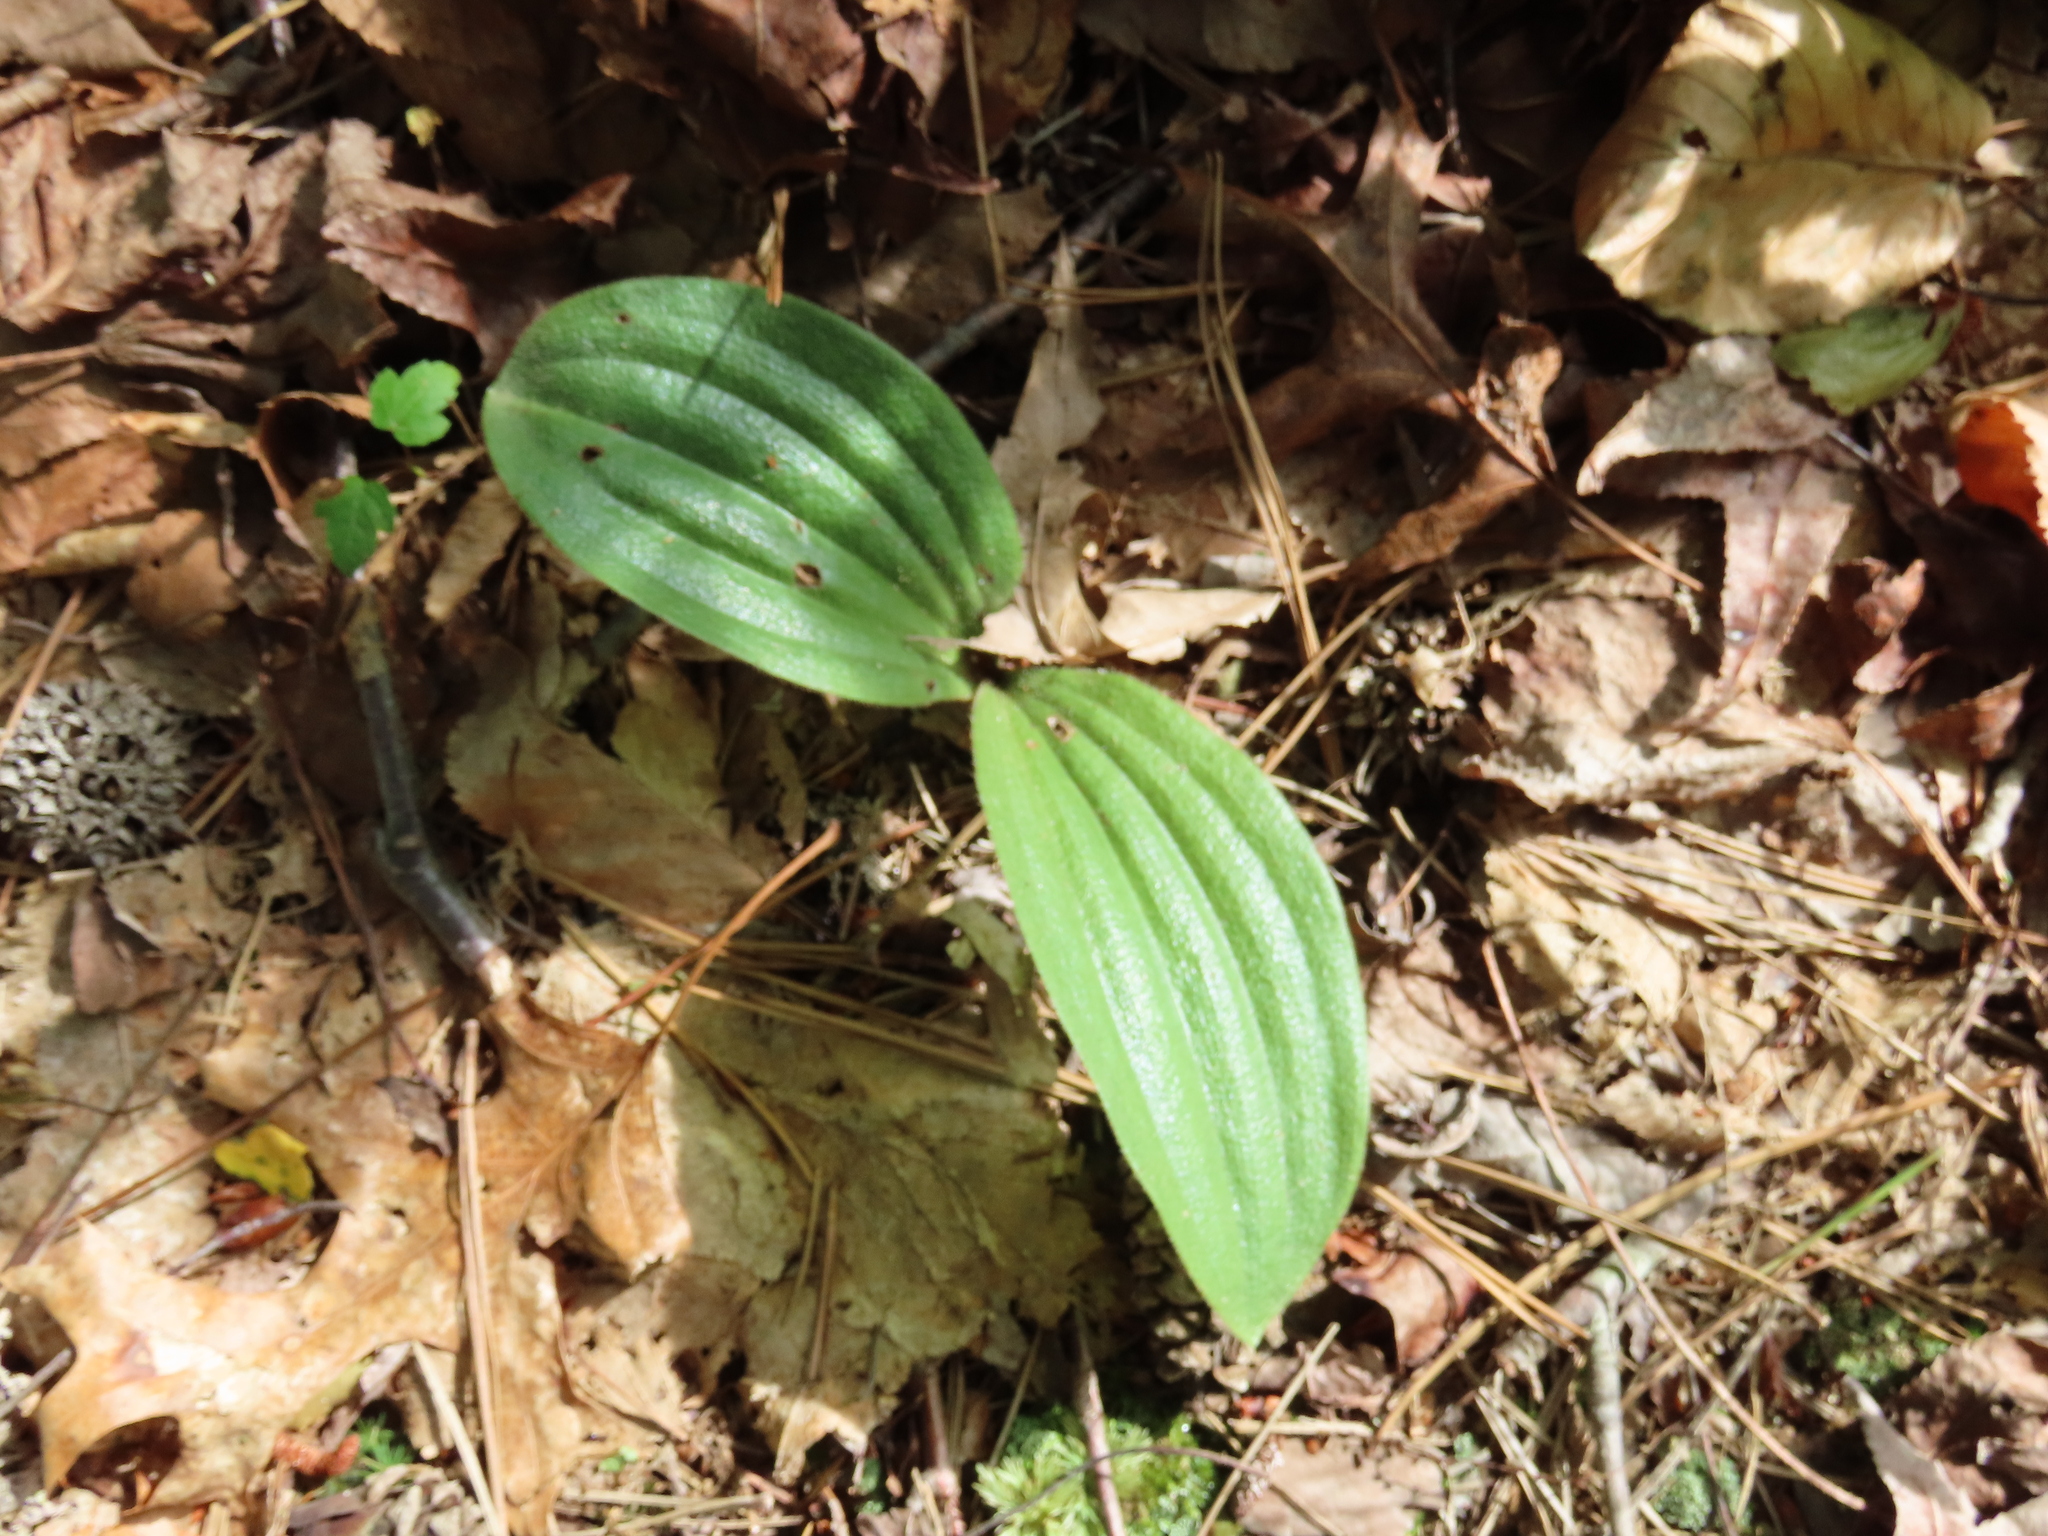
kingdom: Plantae
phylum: Tracheophyta
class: Liliopsida
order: Asparagales
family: Orchidaceae
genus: Cypripedium
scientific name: Cypripedium acaule
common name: Pink lady's-slipper
